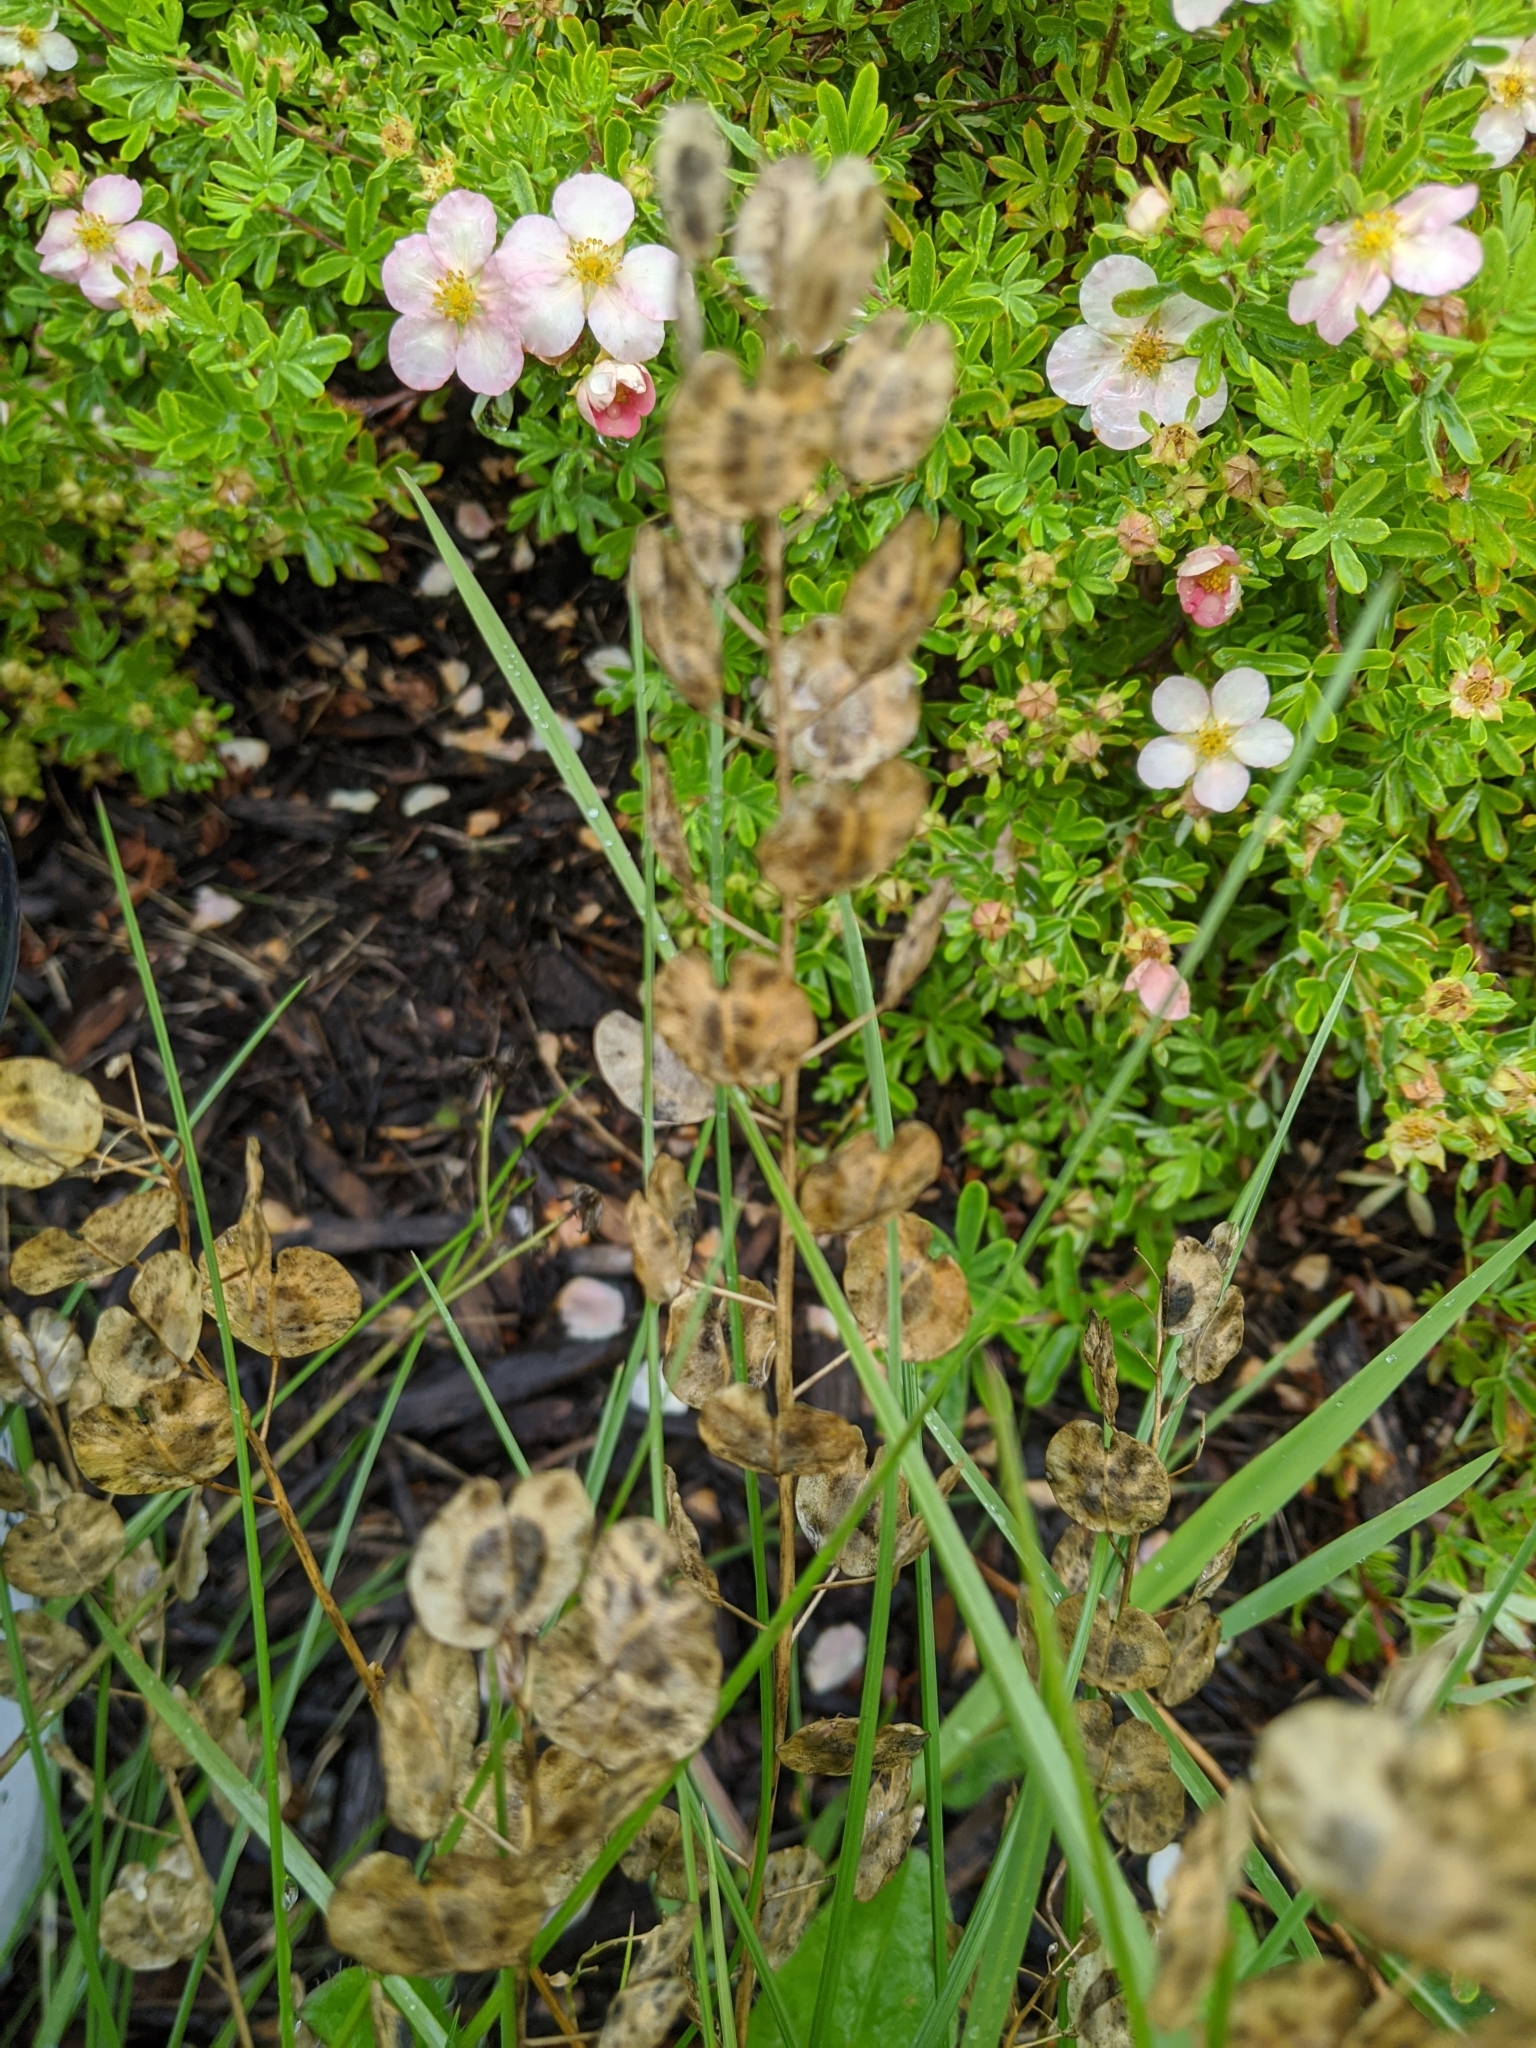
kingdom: Plantae
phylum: Tracheophyta
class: Magnoliopsida
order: Brassicales
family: Brassicaceae
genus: Thlaspi
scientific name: Thlaspi arvense
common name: Field pennycress
